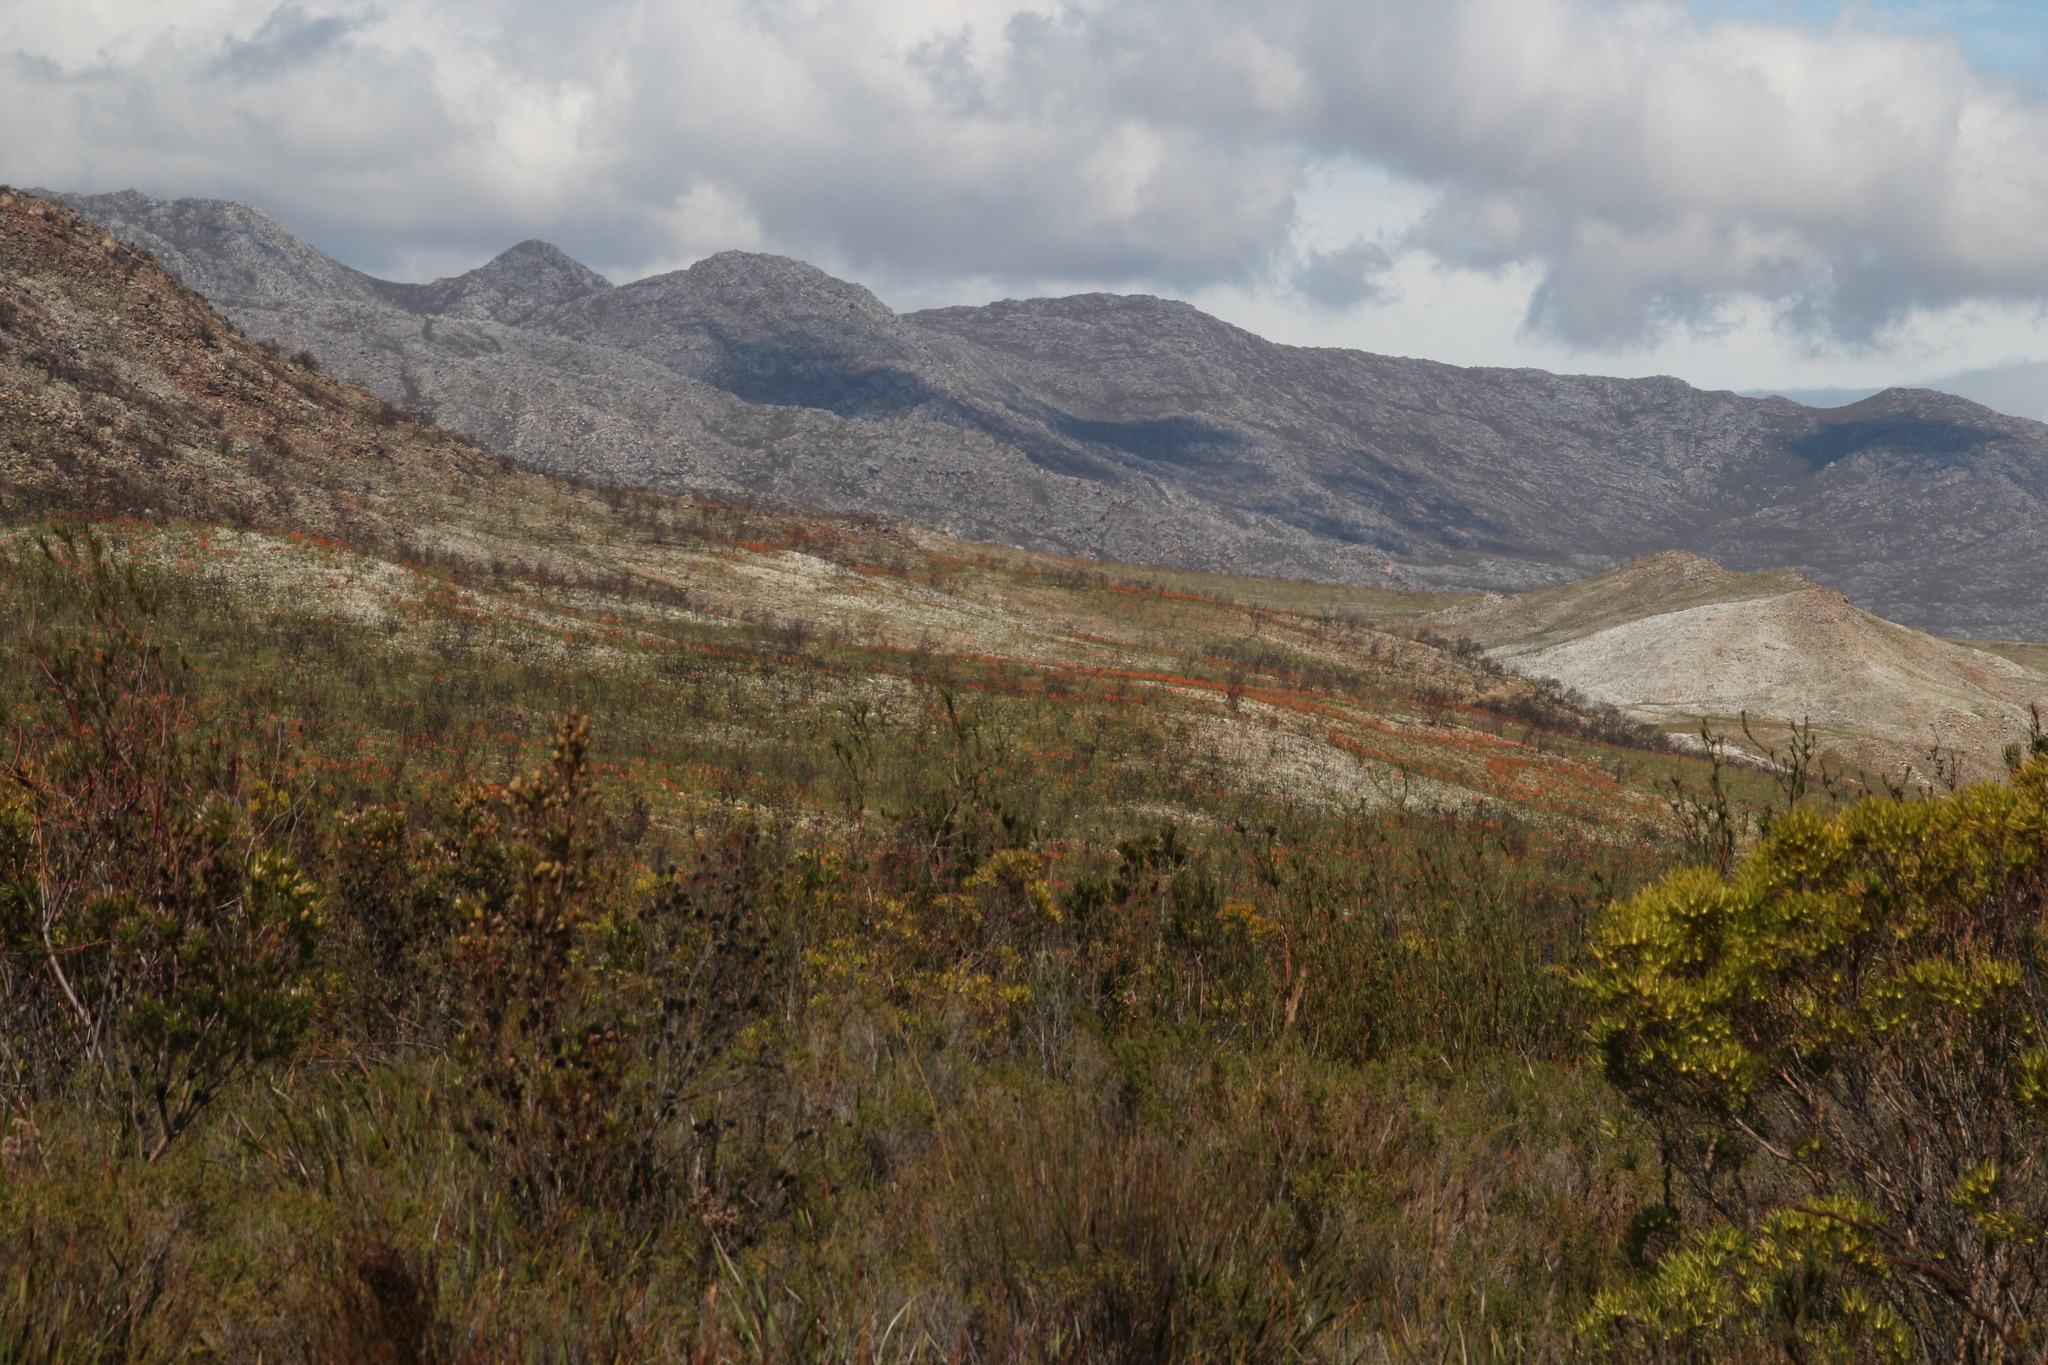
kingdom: Plantae
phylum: Tracheophyta
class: Liliopsida
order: Asparagales
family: Iridaceae
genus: Pillansia
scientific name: Pillansia templemannii
